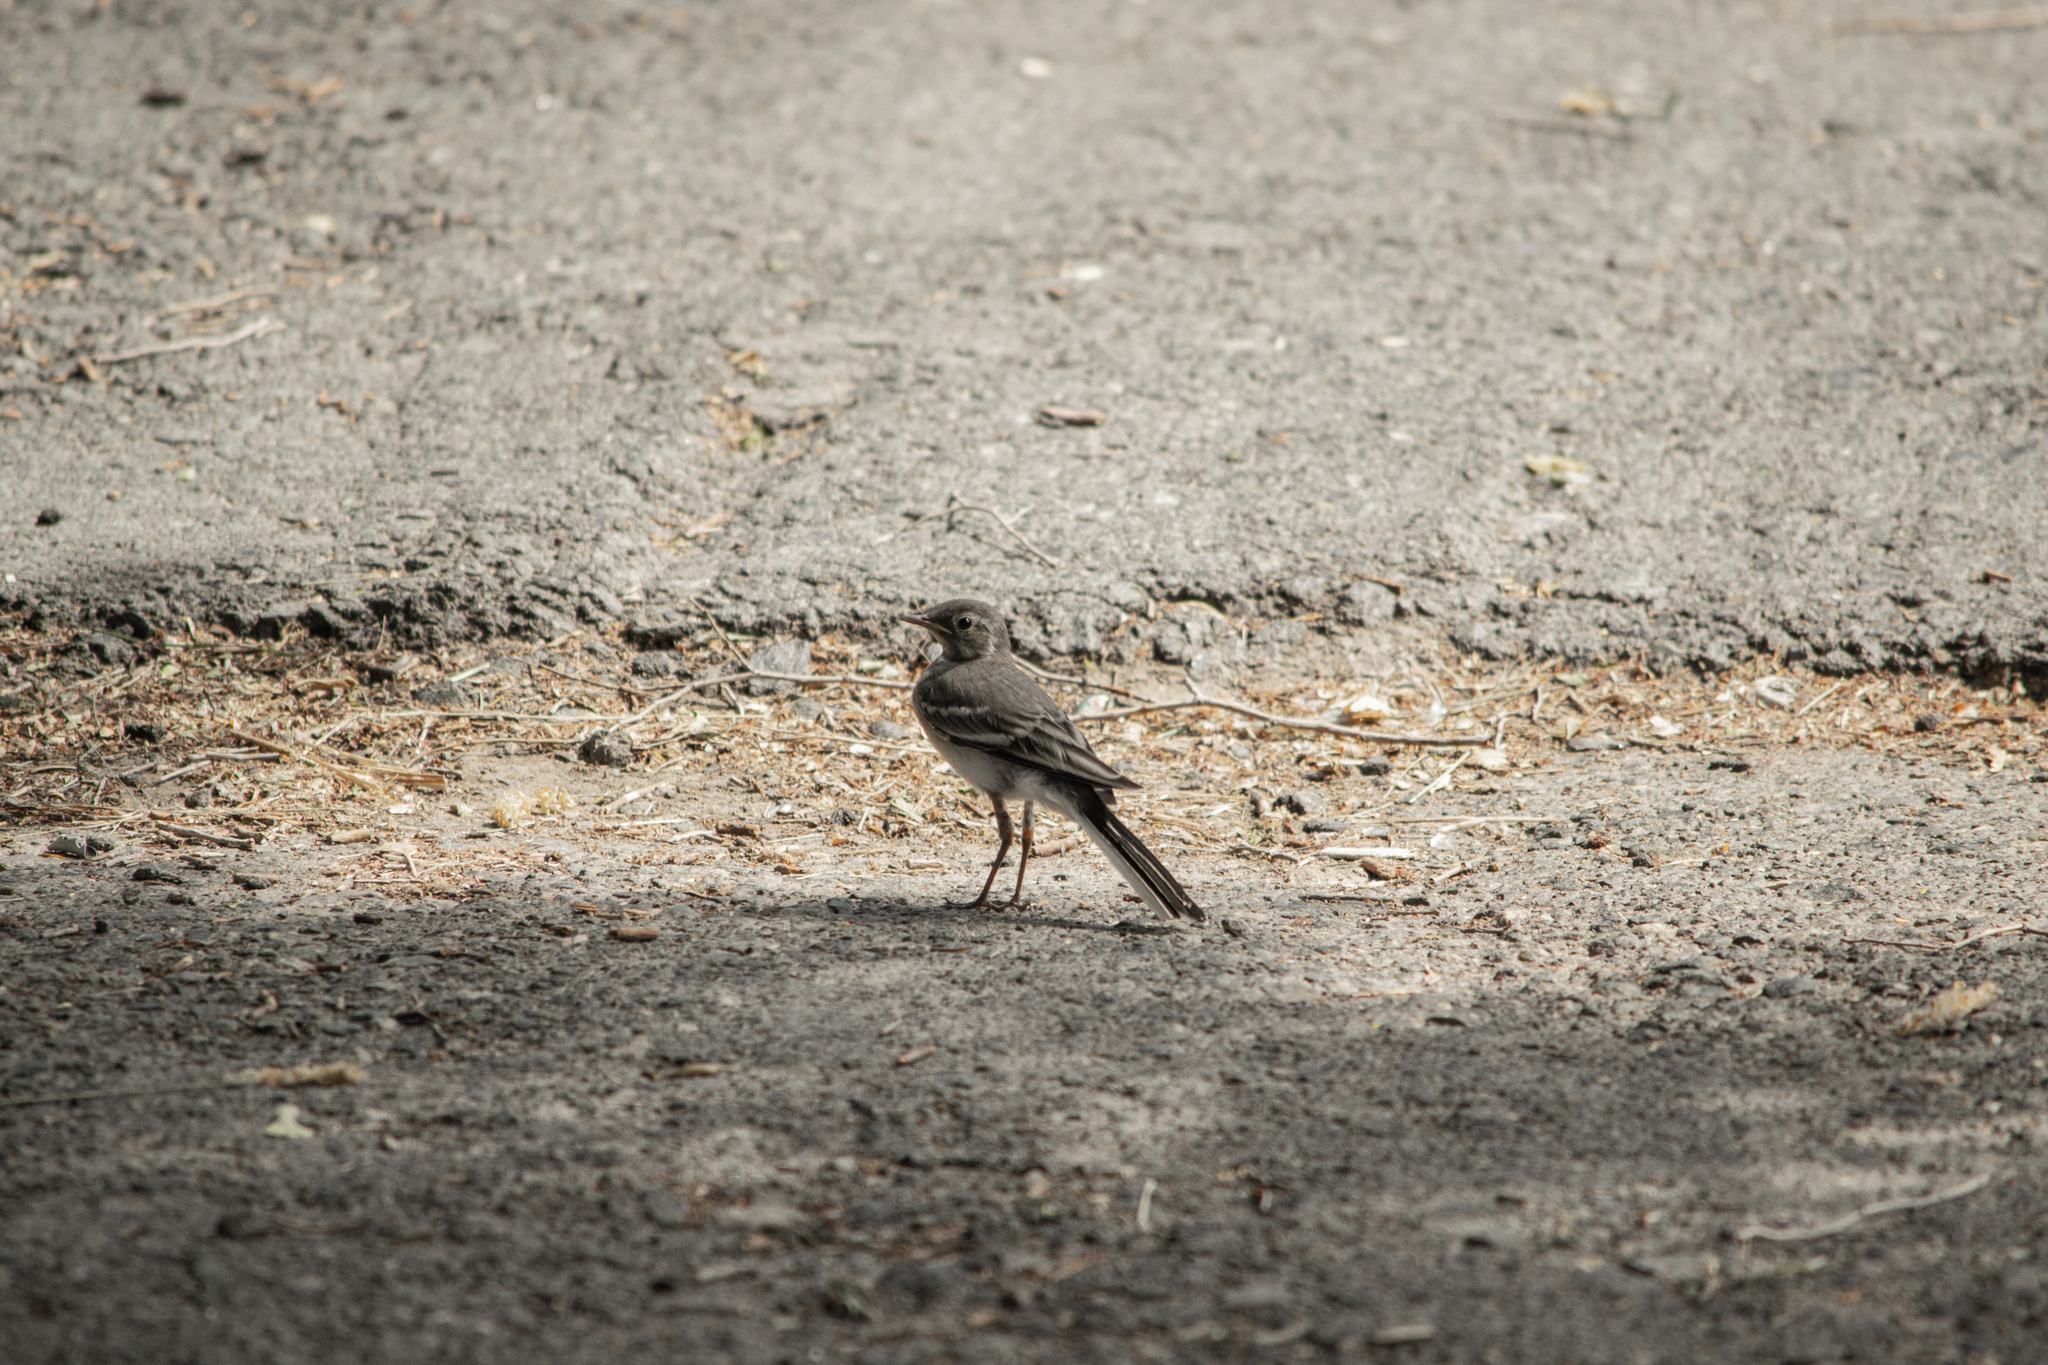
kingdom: Animalia
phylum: Chordata
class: Aves
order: Passeriformes
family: Motacillidae
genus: Motacilla
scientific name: Motacilla alba
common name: White wagtail
